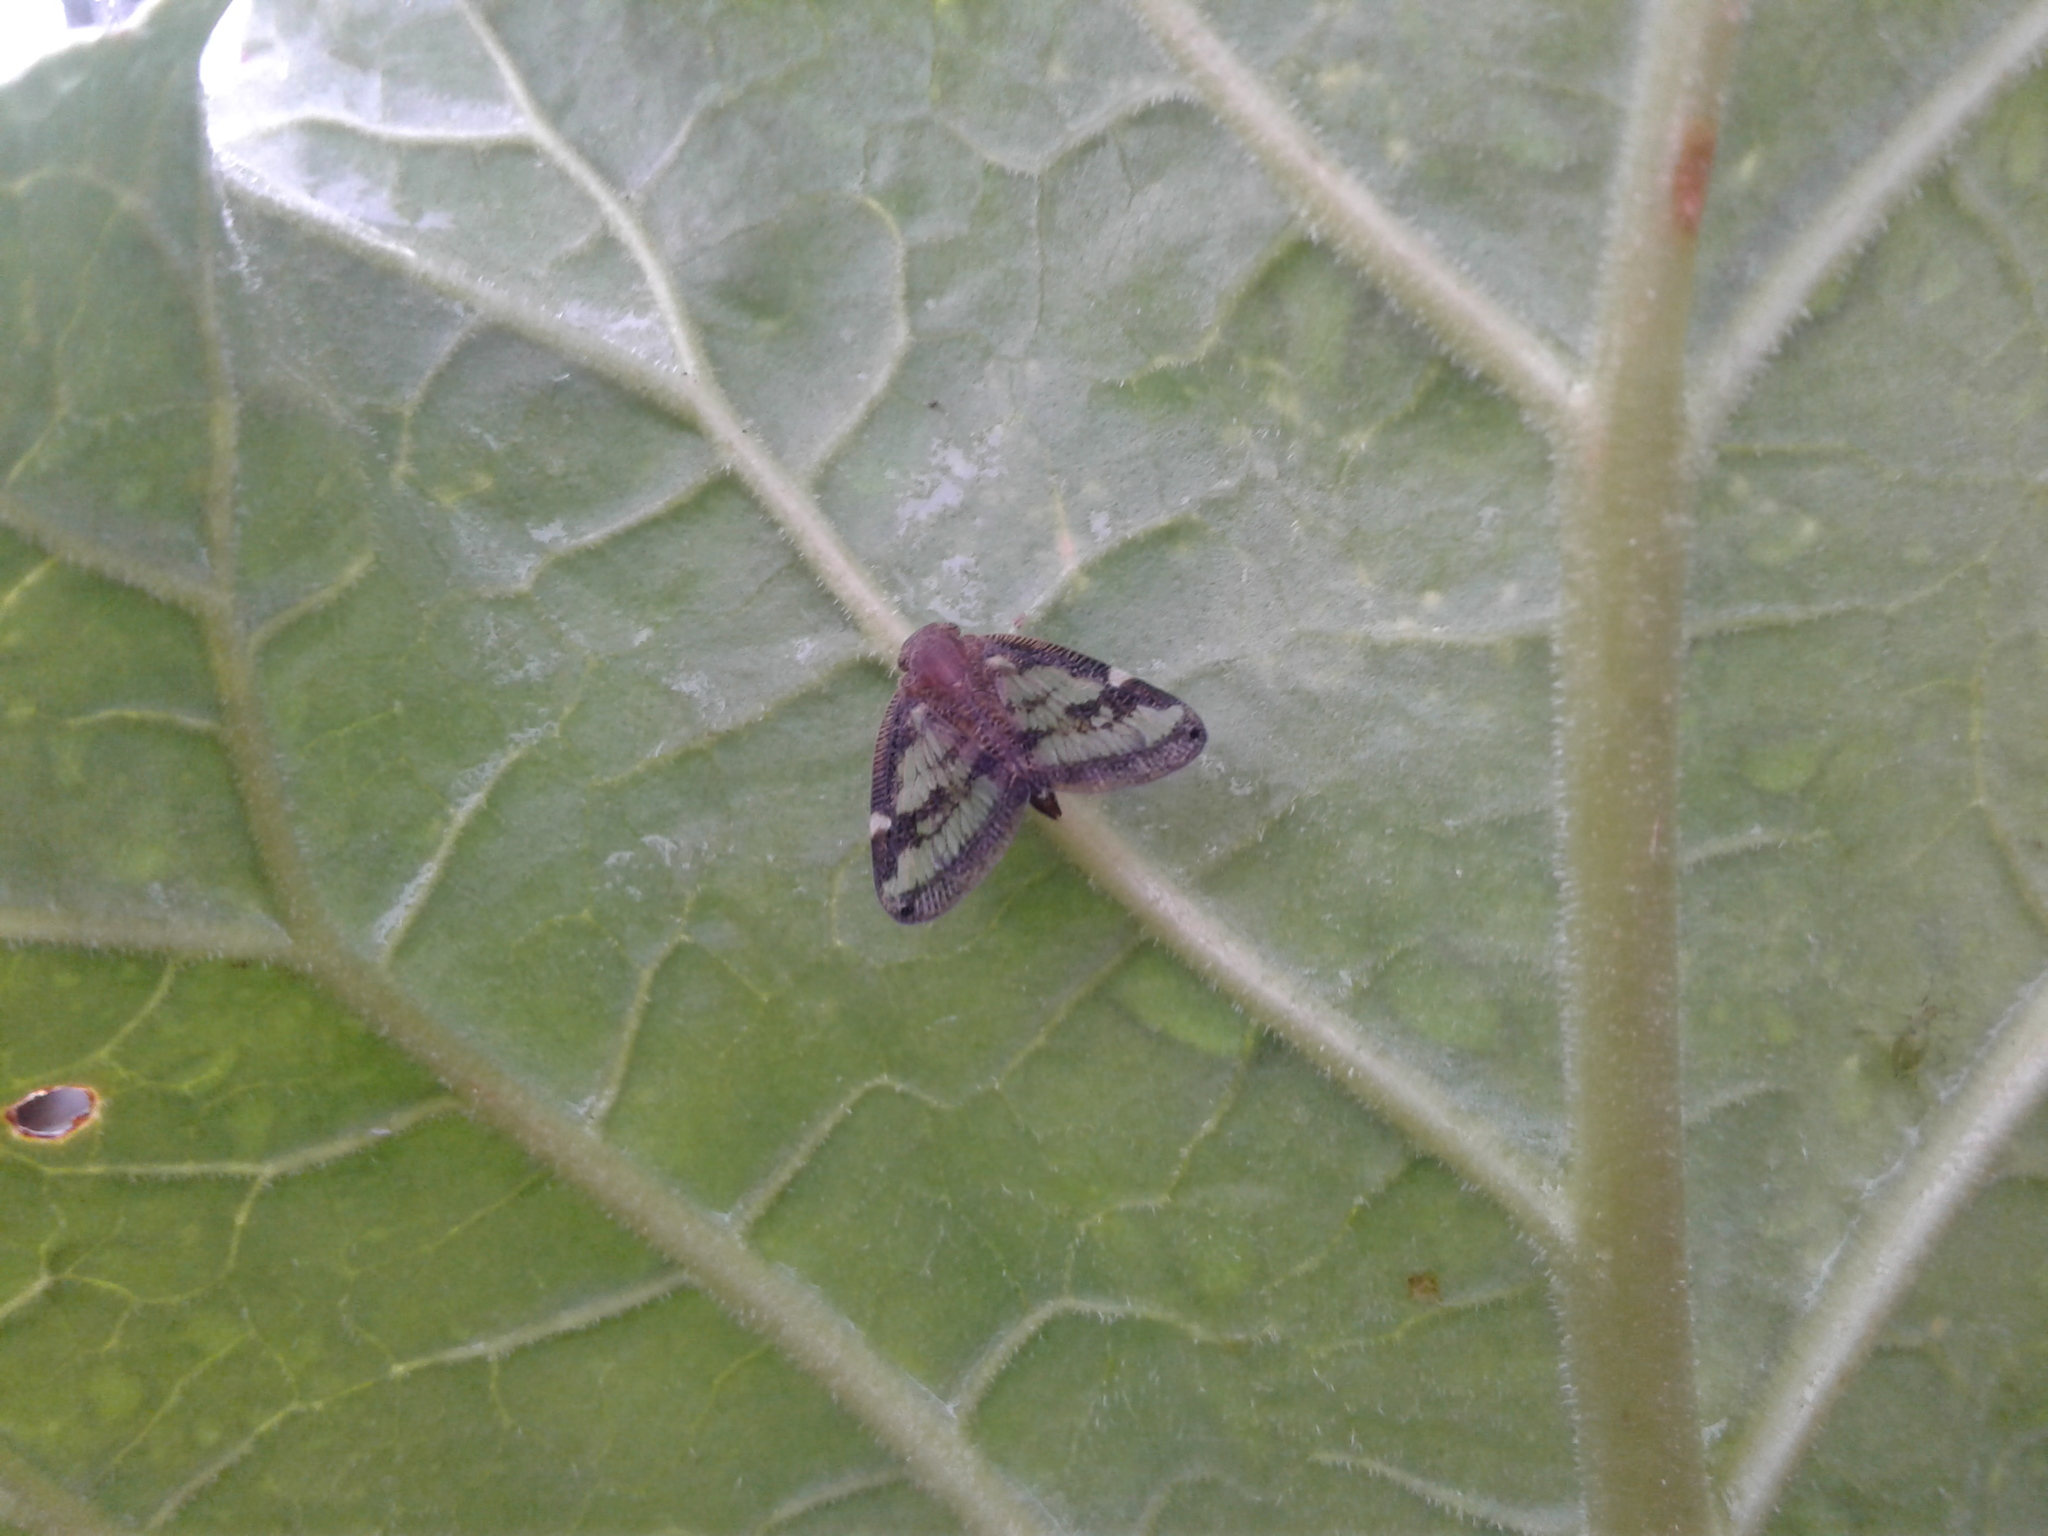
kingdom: Animalia
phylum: Arthropoda
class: Insecta
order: Hemiptera
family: Ricaniidae
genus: Scolypopa
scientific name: Scolypopa australis
